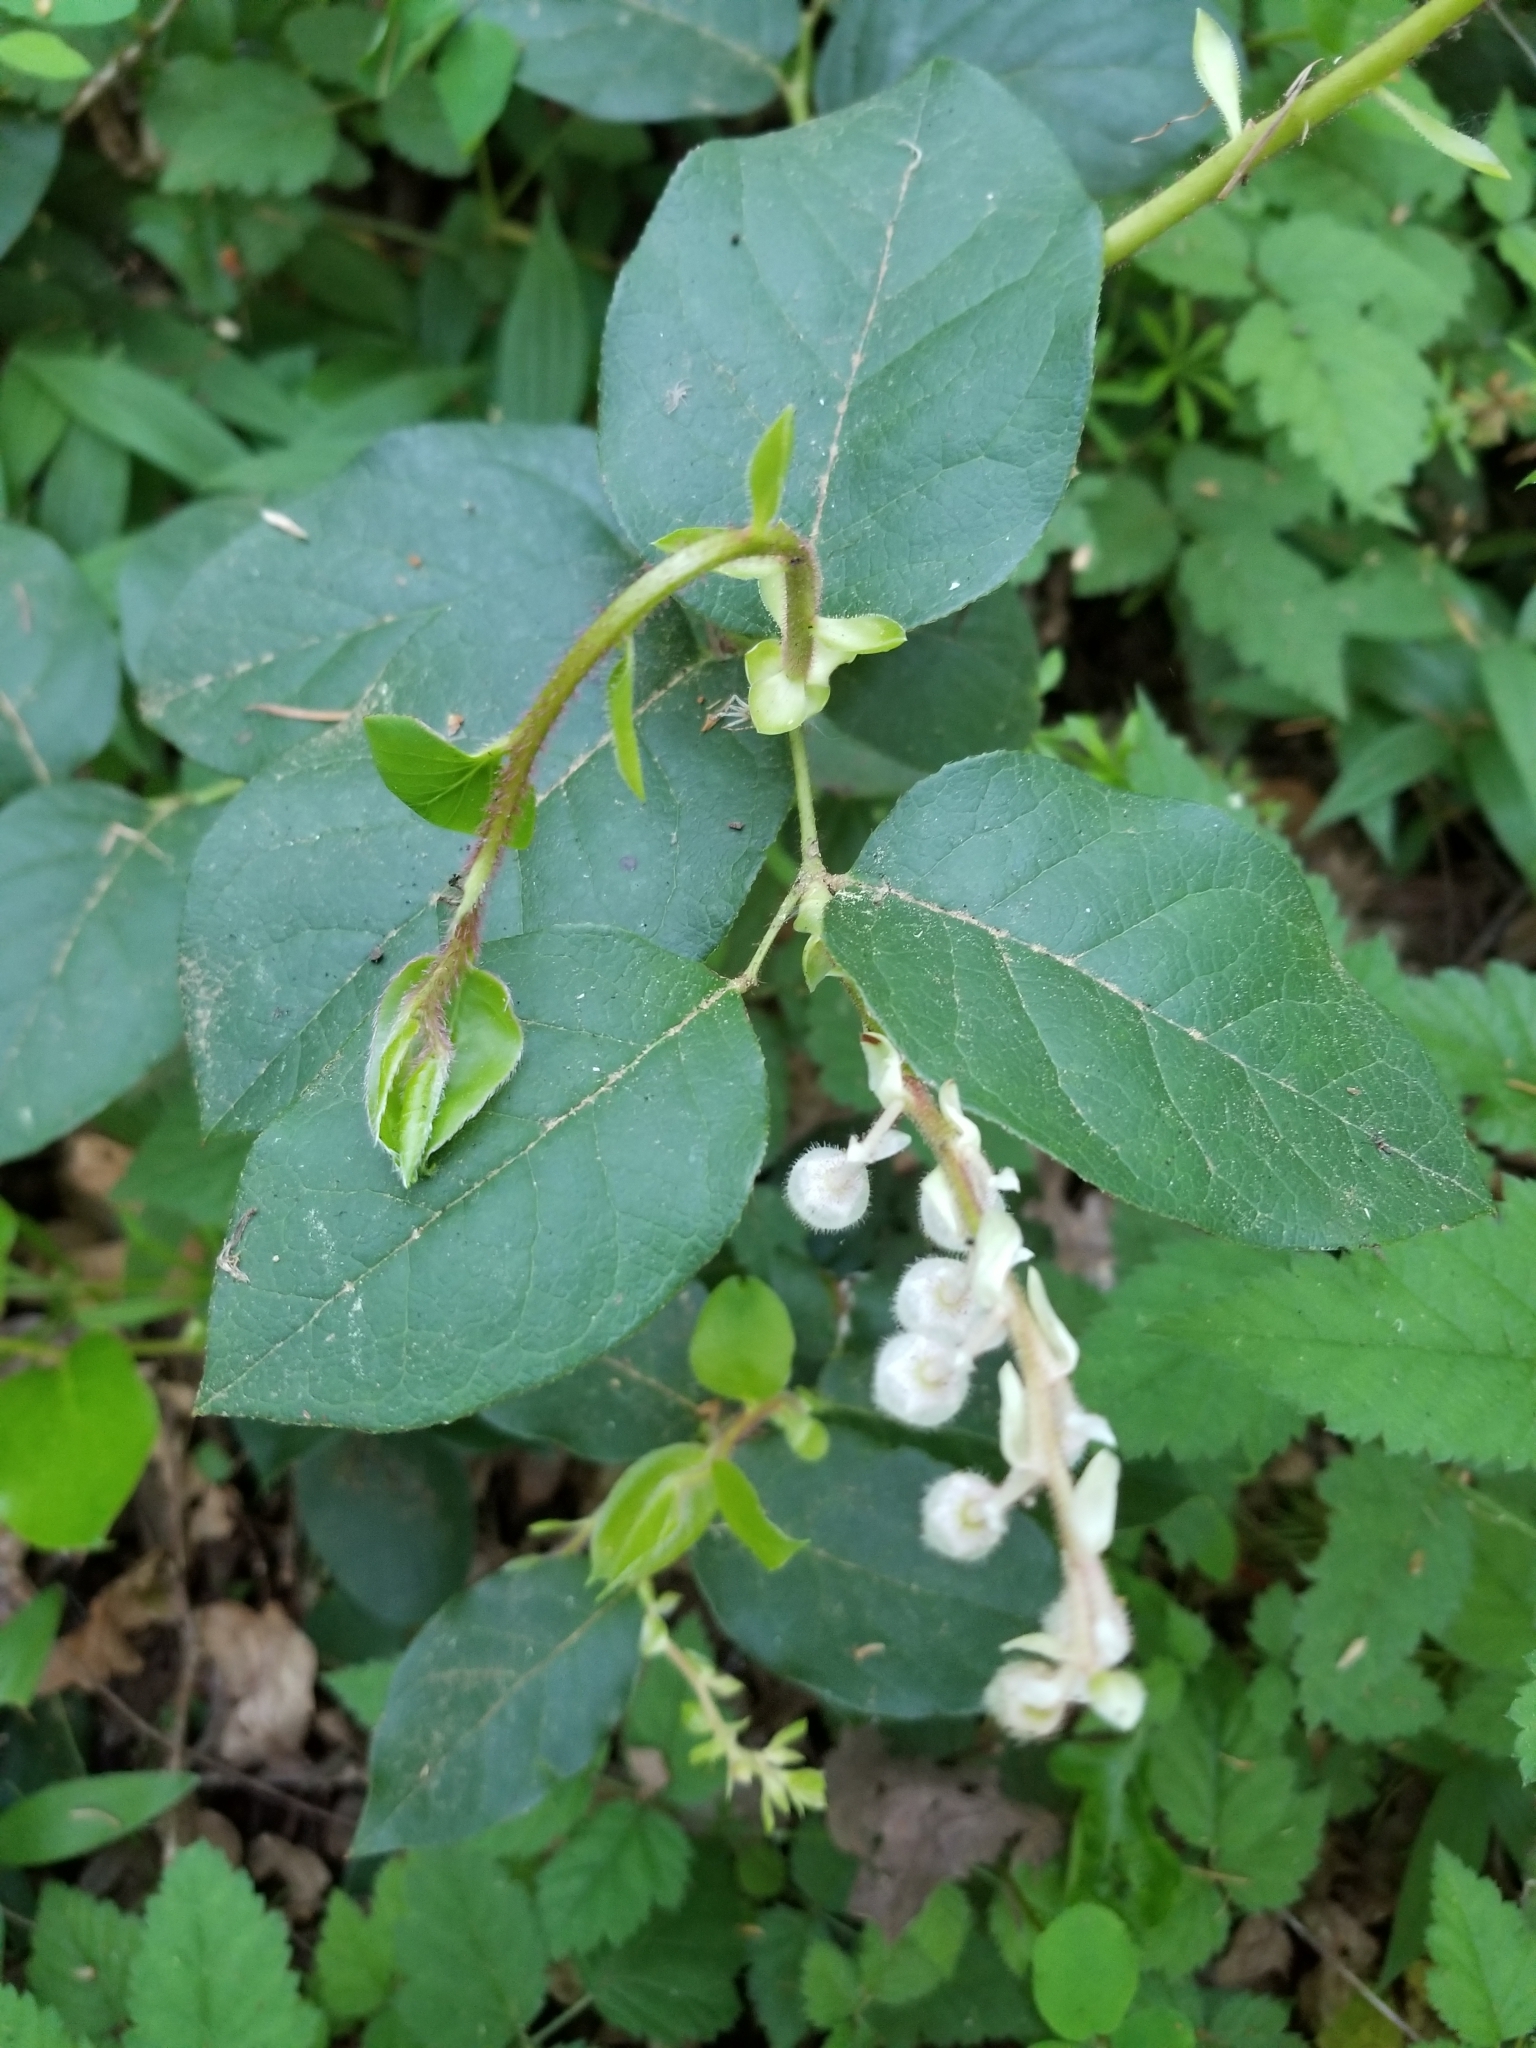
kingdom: Plantae
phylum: Tracheophyta
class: Magnoliopsida
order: Ericales
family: Ericaceae
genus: Gaultheria
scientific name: Gaultheria shallon
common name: Shallon
